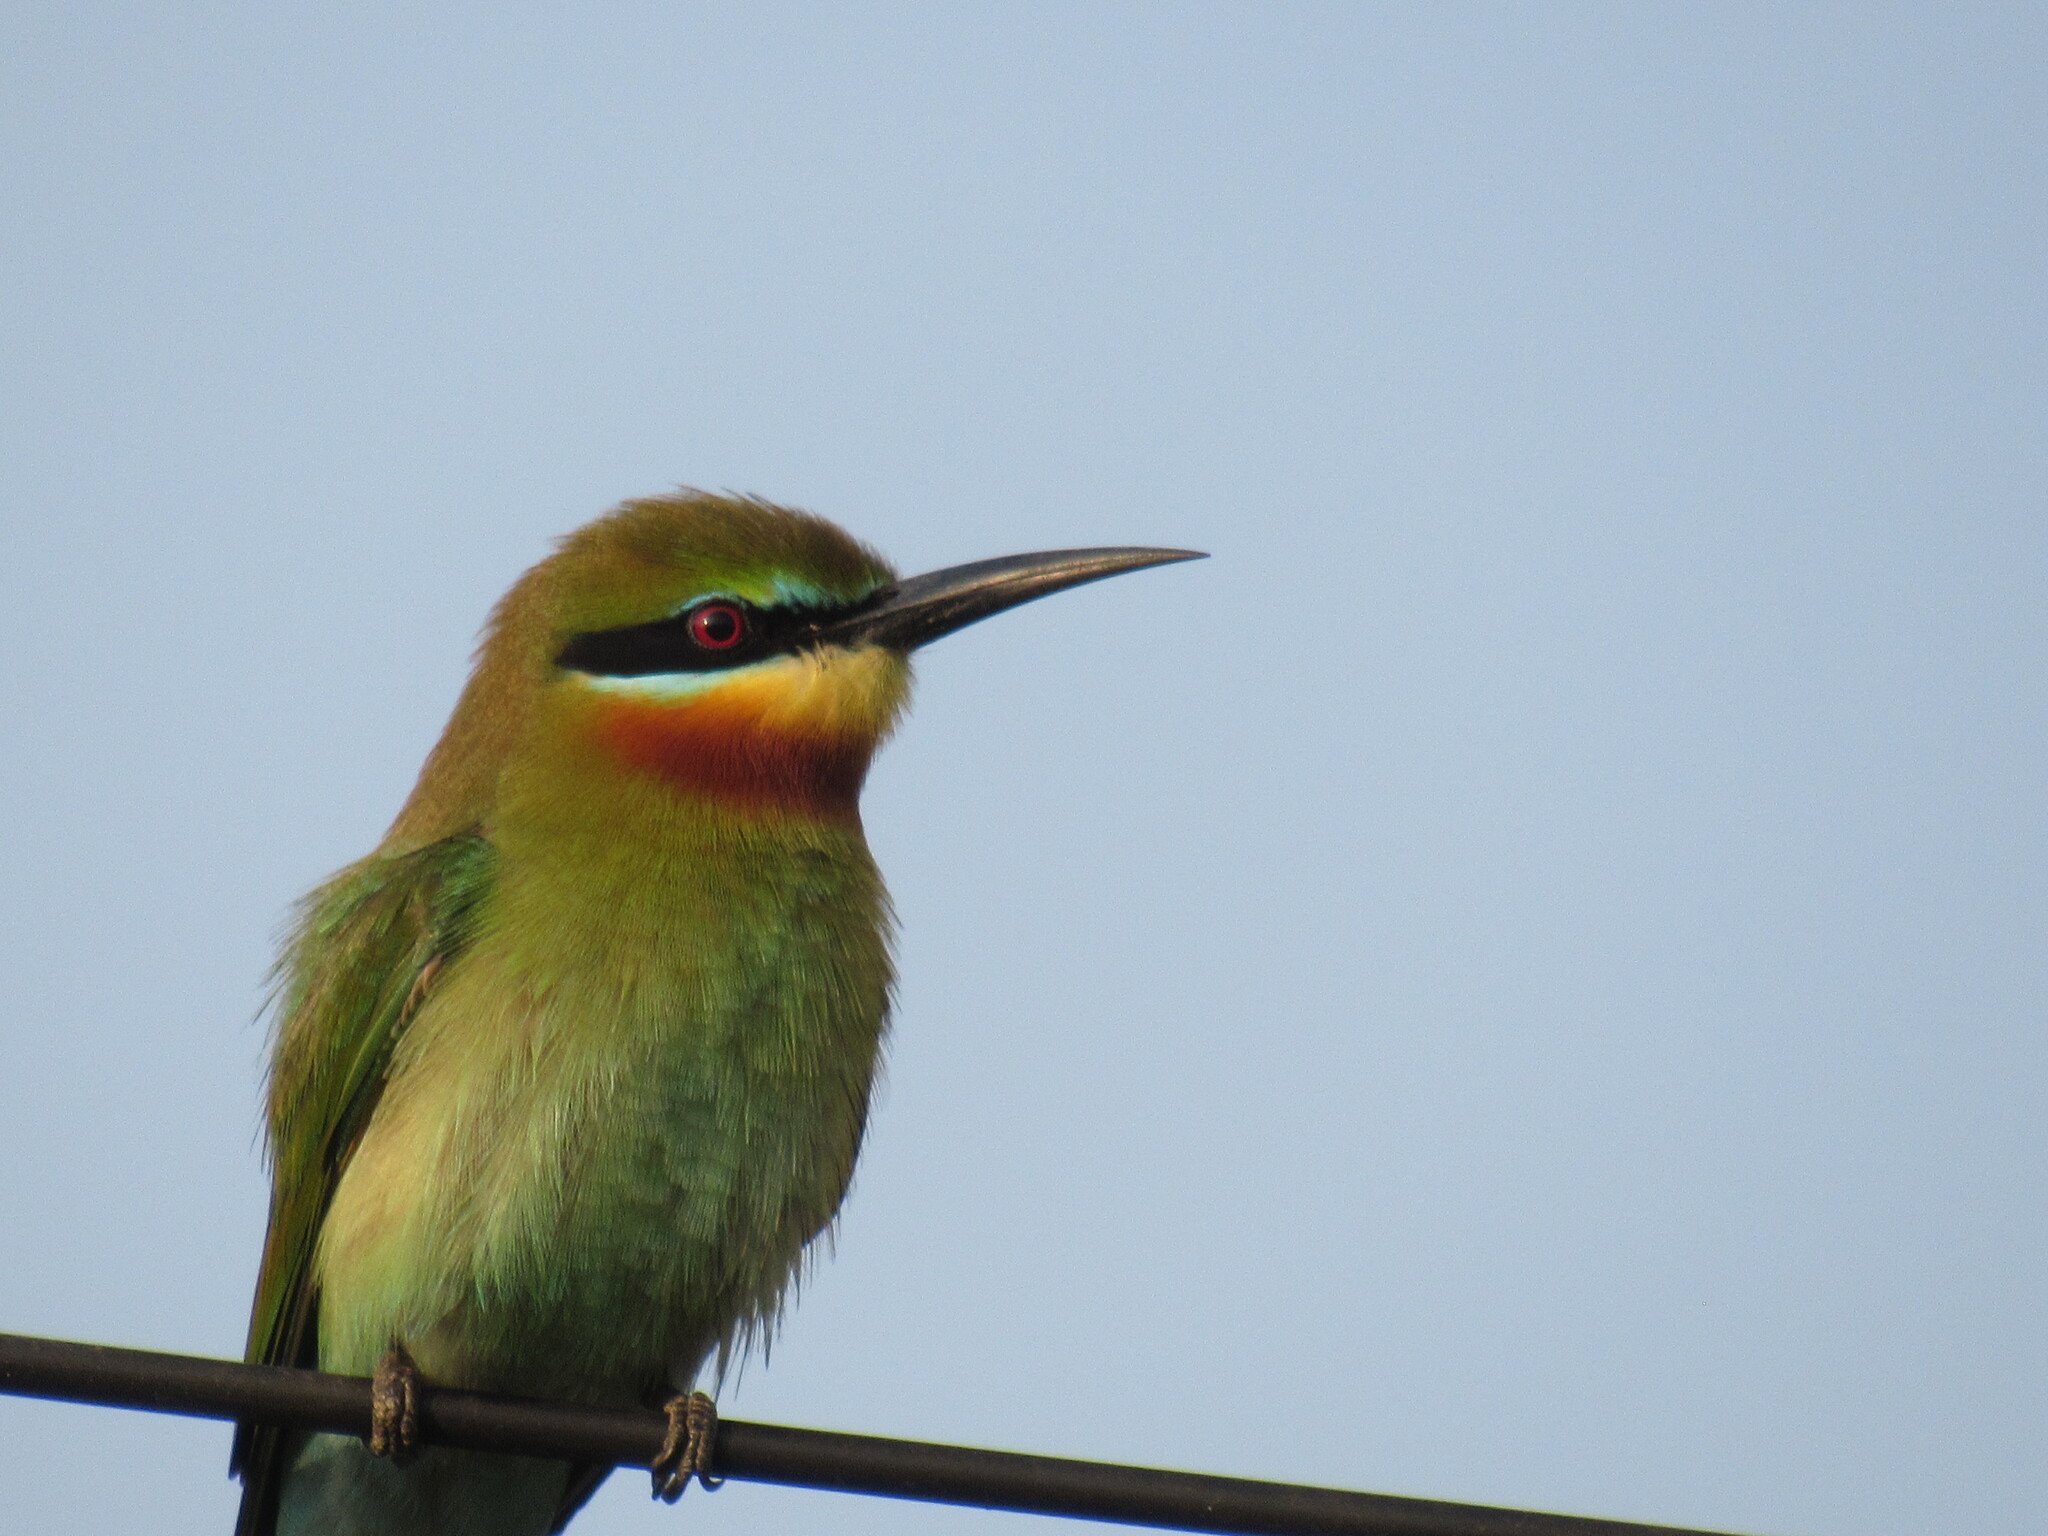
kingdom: Animalia
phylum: Chordata
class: Aves
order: Coraciiformes
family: Meropidae
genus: Merops
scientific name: Merops philippinus
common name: Blue-tailed bee-eater
